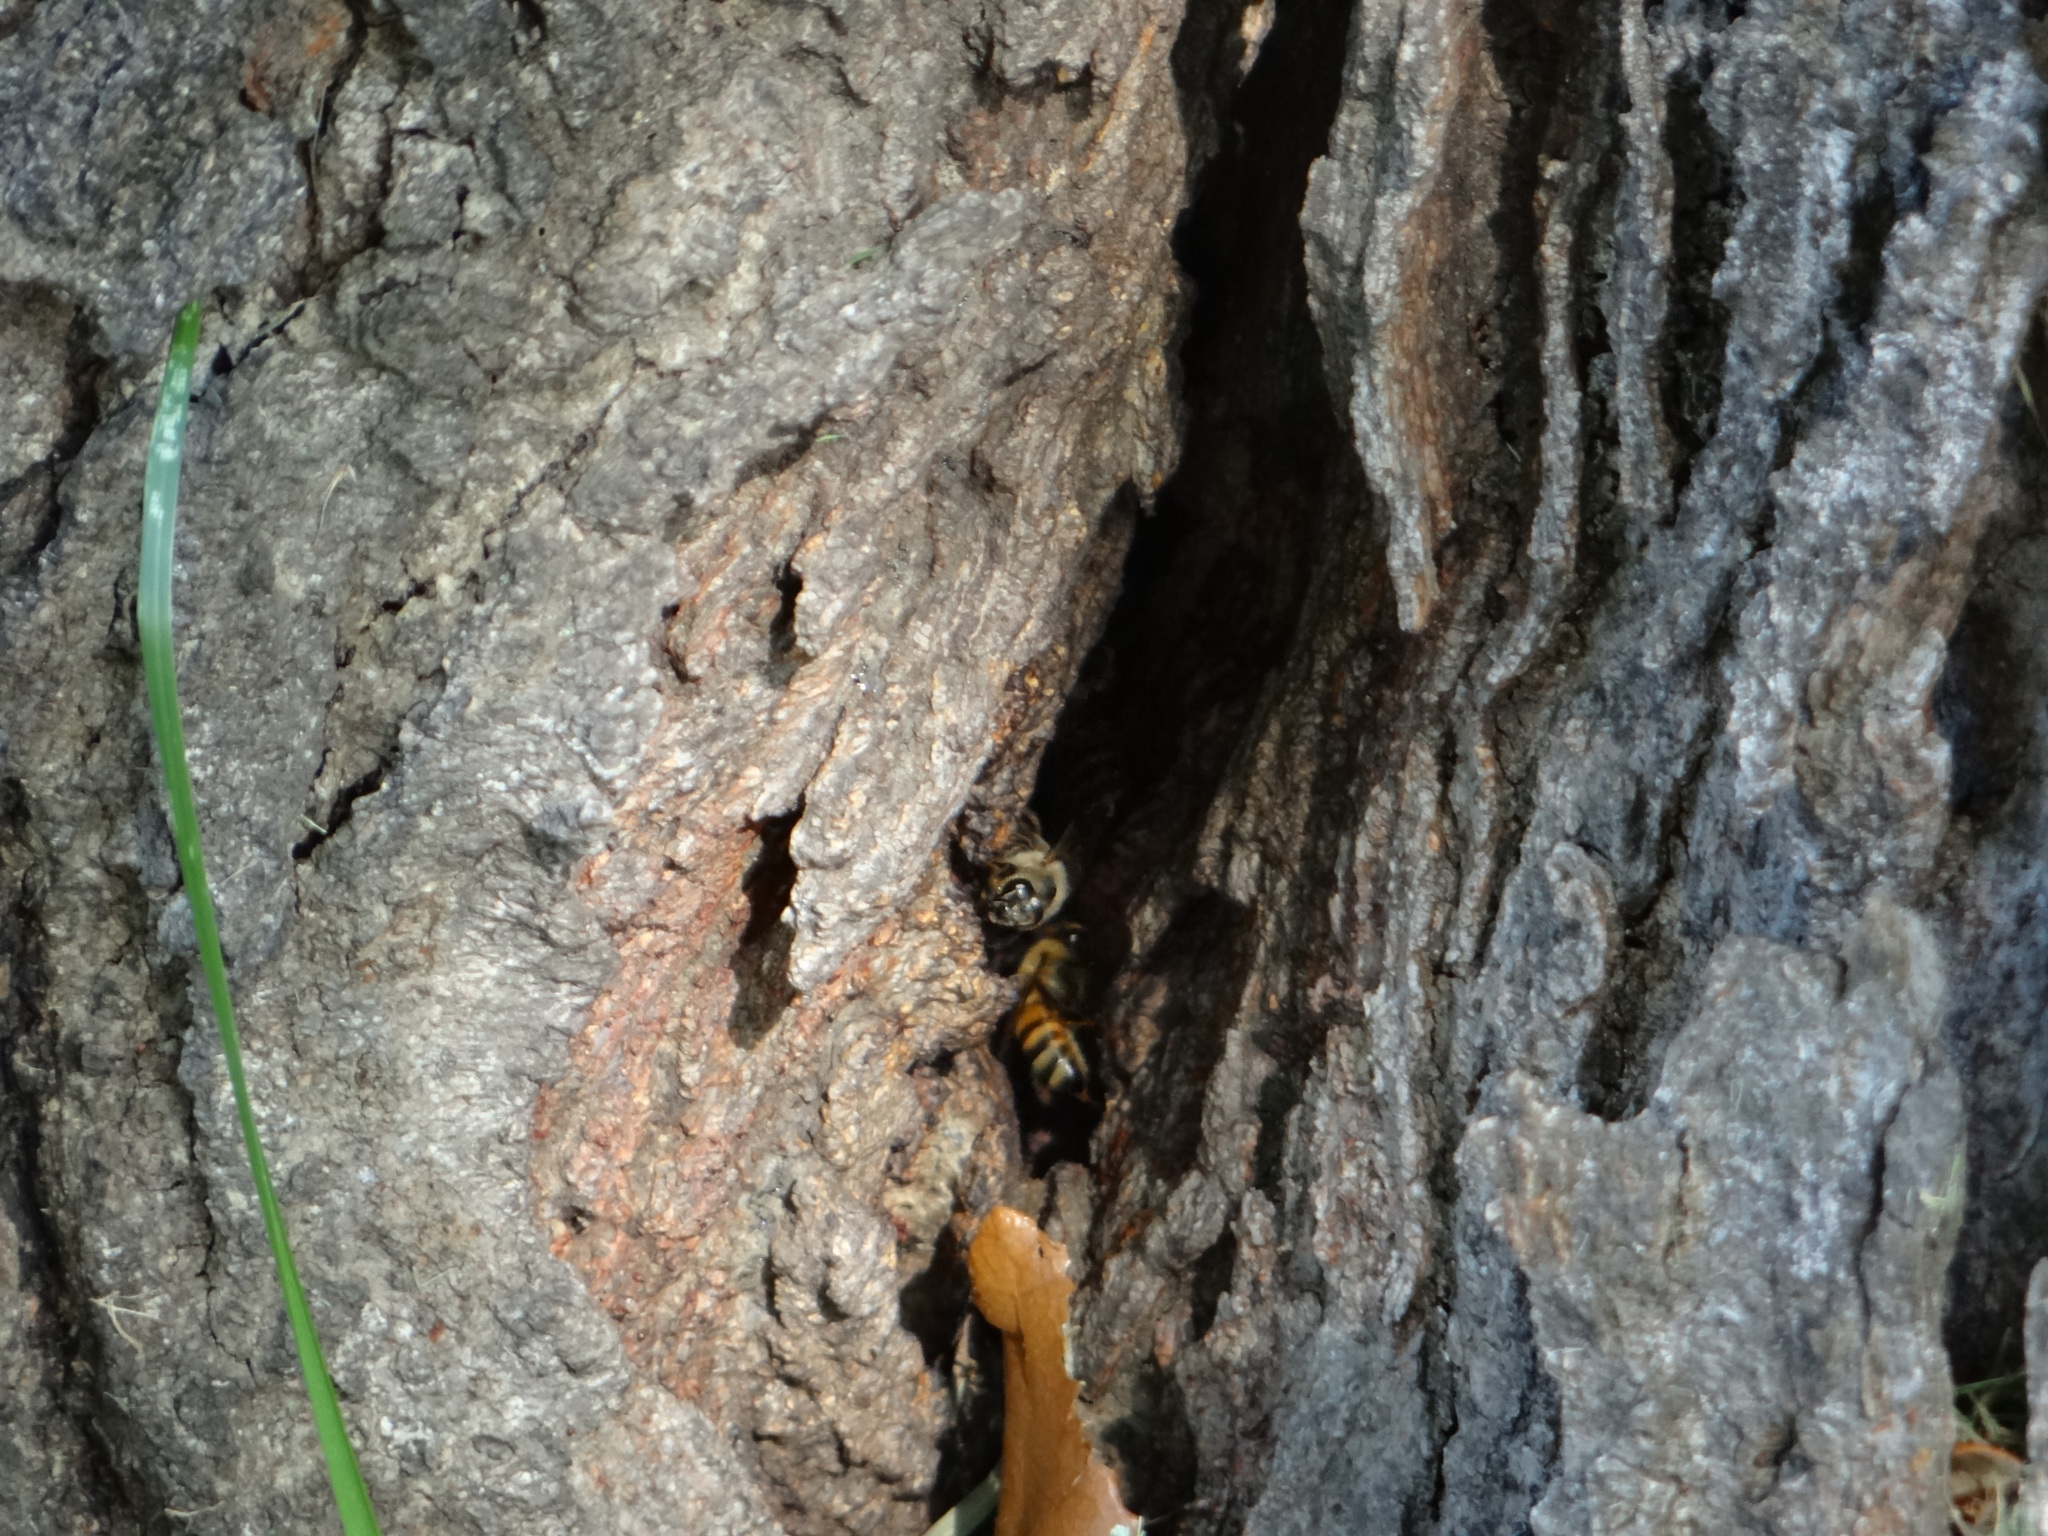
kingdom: Animalia
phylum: Arthropoda
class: Insecta
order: Hymenoptera
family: Apidae
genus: Apis
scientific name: Apis mellifera
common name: Honey bee
